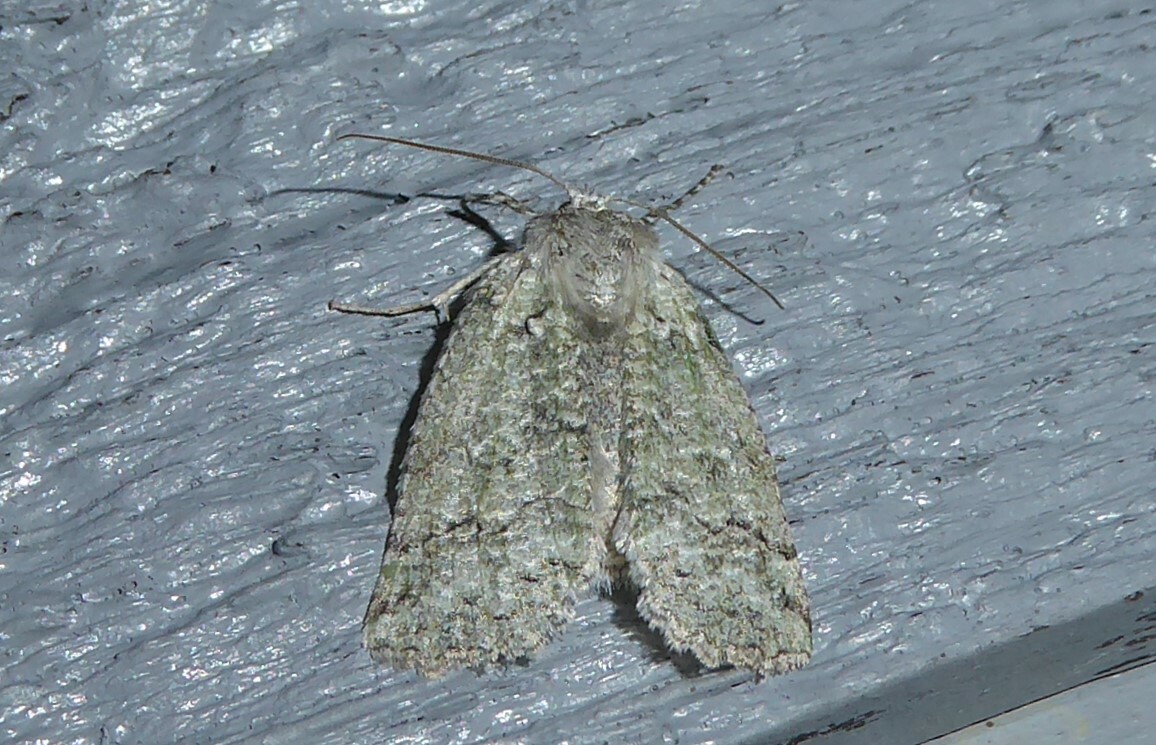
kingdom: Animalia
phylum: Arthropoda
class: Insecta
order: Lepidoptera
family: Geometridae
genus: Declana
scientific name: Declana floccosa
